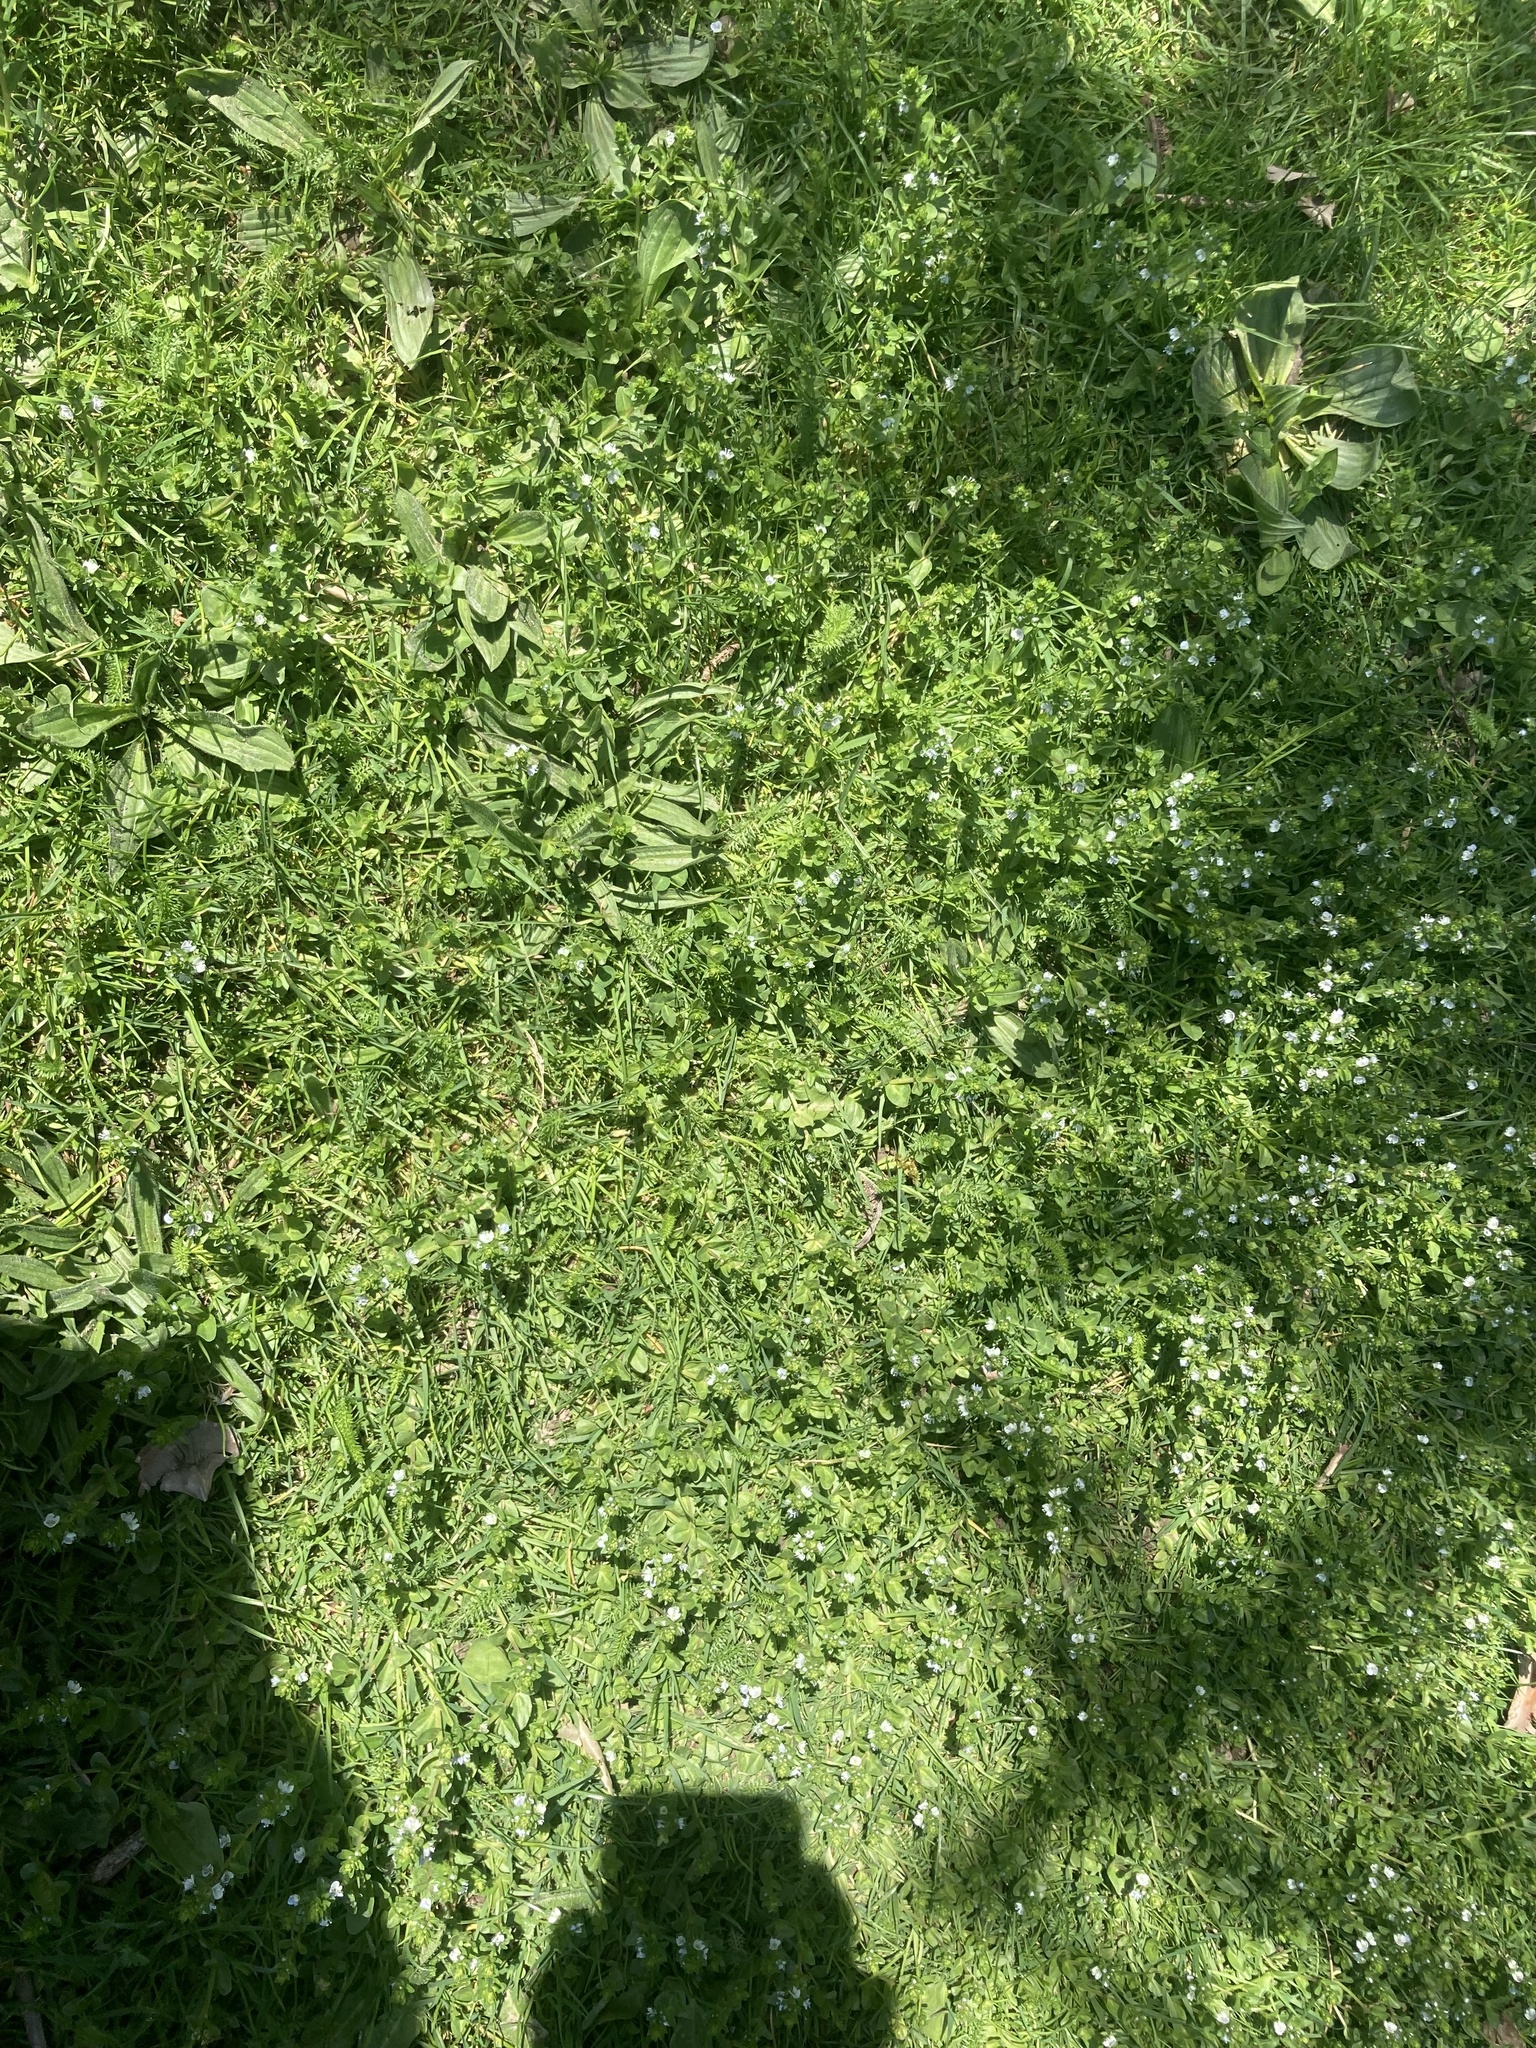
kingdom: Plantae
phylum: Tracheophyta
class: Magnoliopsida
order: Lamiales
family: Plantaginaceae
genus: Veronica
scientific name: Veronica serpyllifolia
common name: Thyme-leaved speedwell
